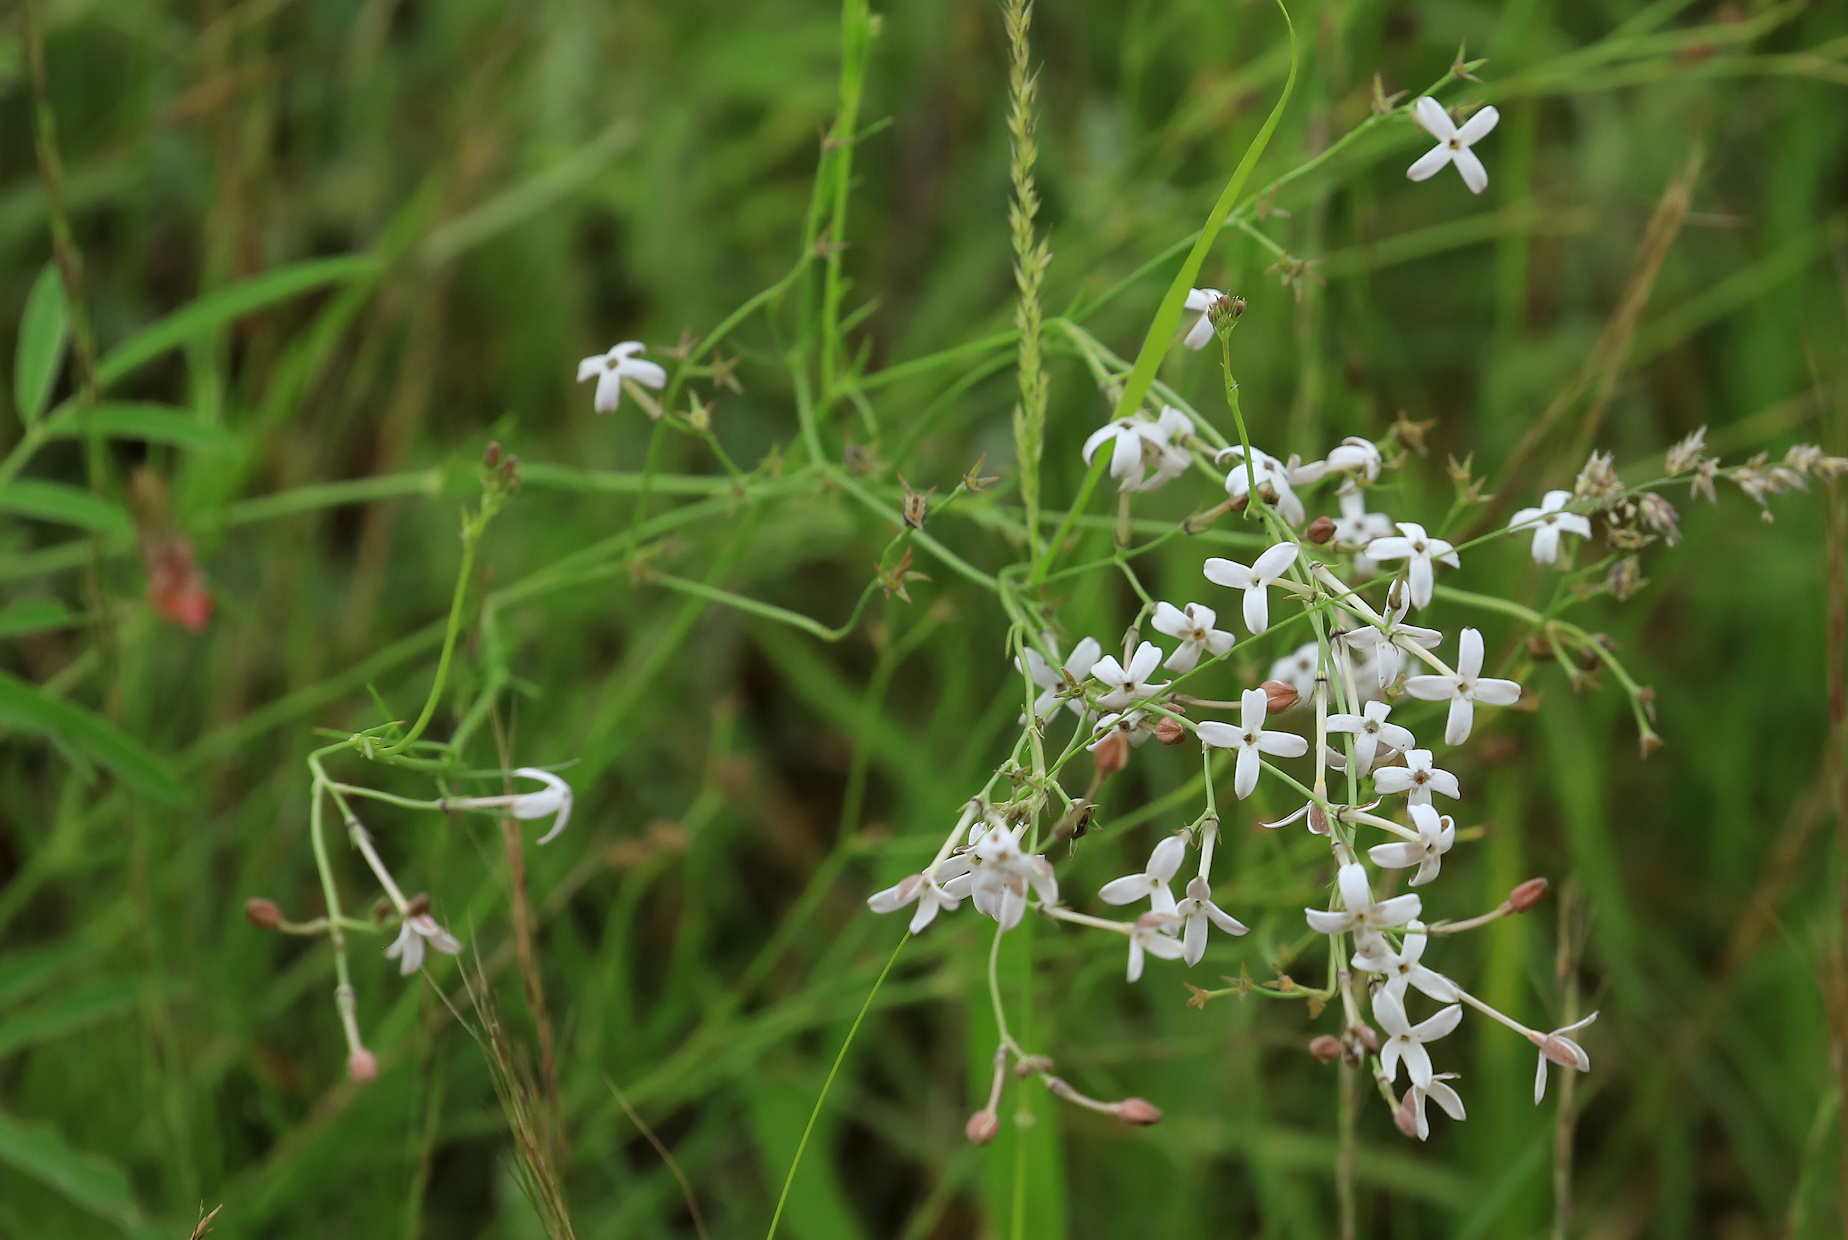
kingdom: Plantae
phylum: Tracheophyta
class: Magnoliopsida
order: Gentianales
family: Rubiaceae
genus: Kohautia
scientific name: Kohautia caespitosa
